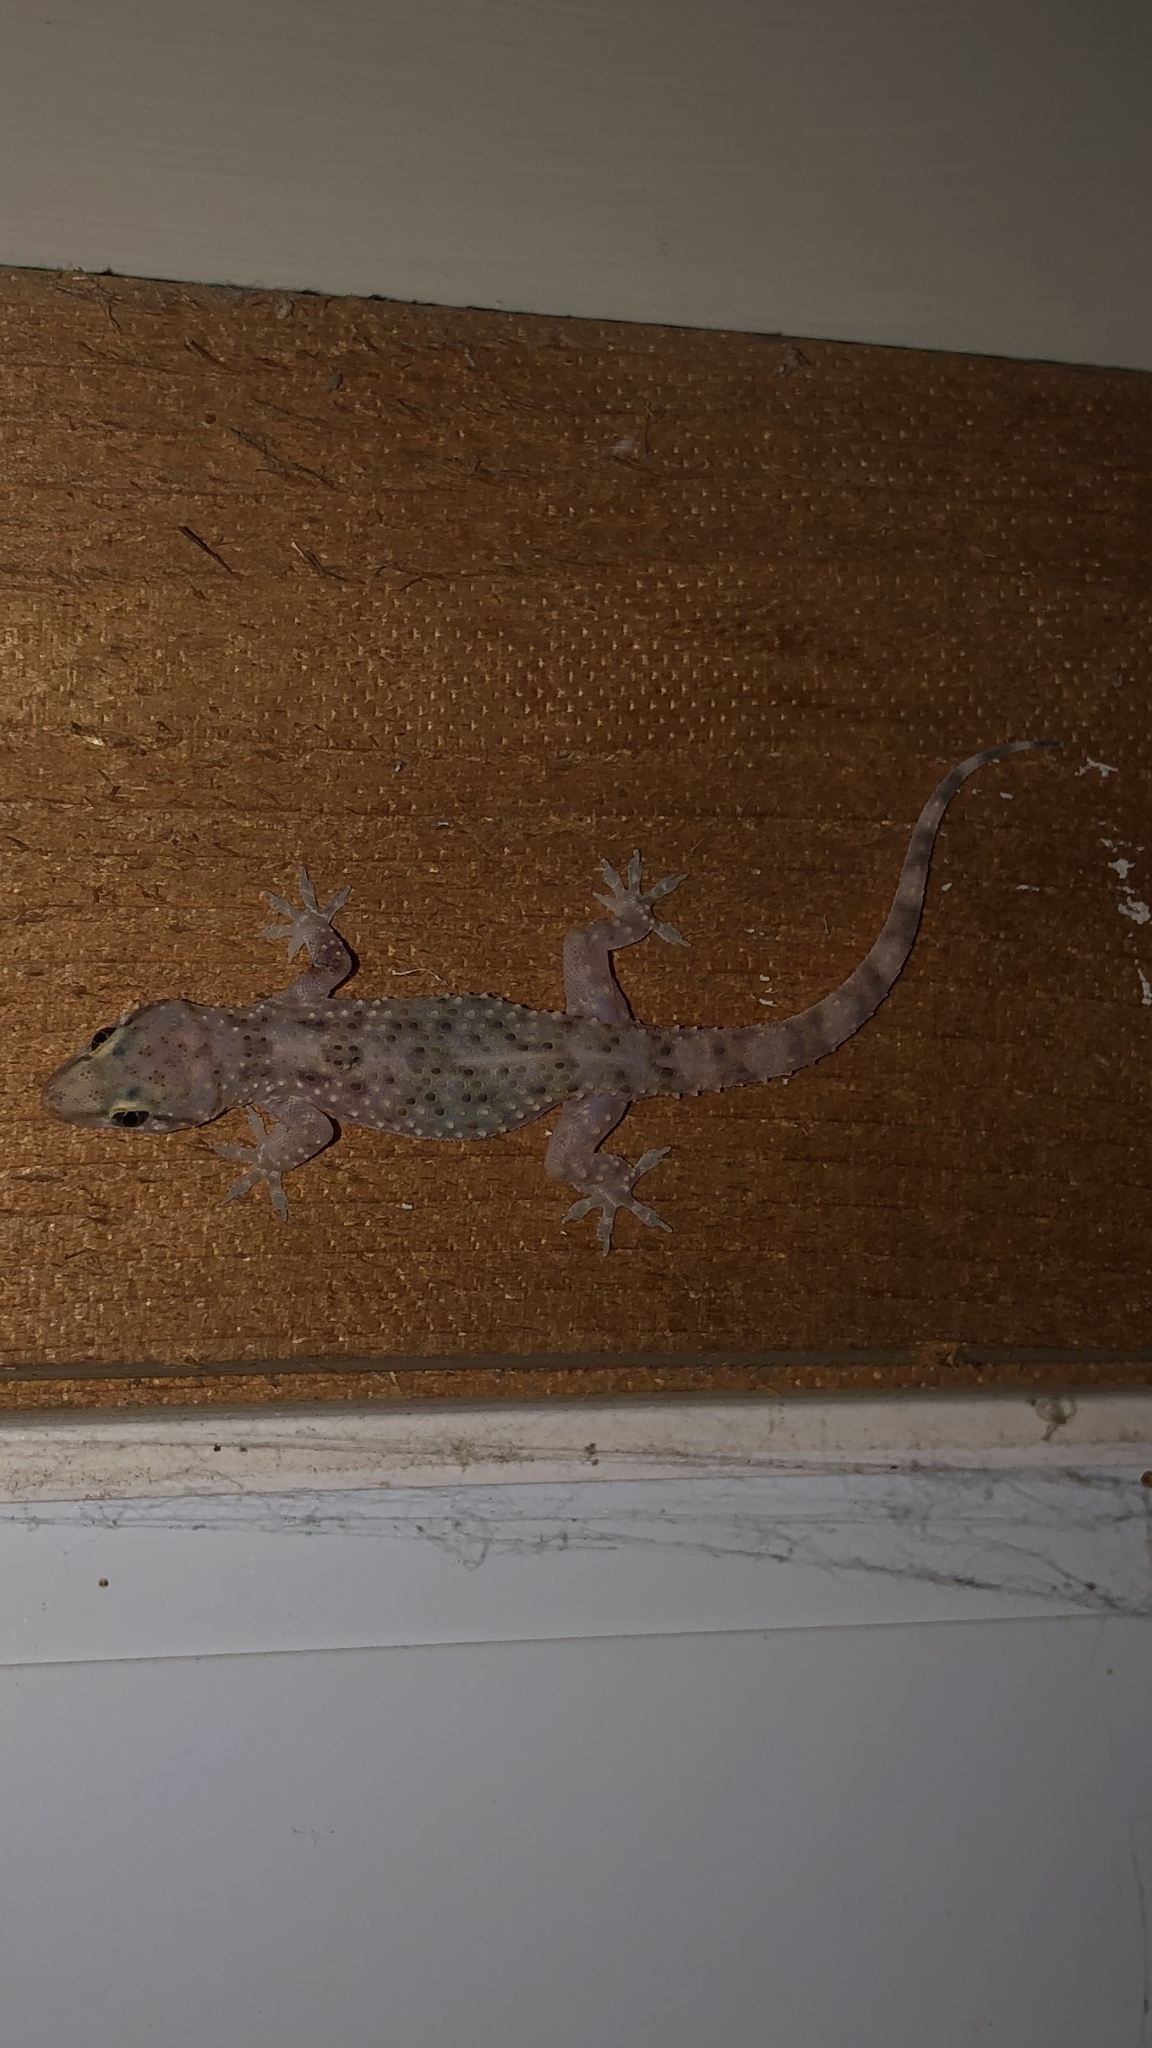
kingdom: Animalia
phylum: Chordata
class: Squamata
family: Gekkonidae
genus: Hemidactylus
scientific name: Hemidactylus turcicus
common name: Turkish gecko
